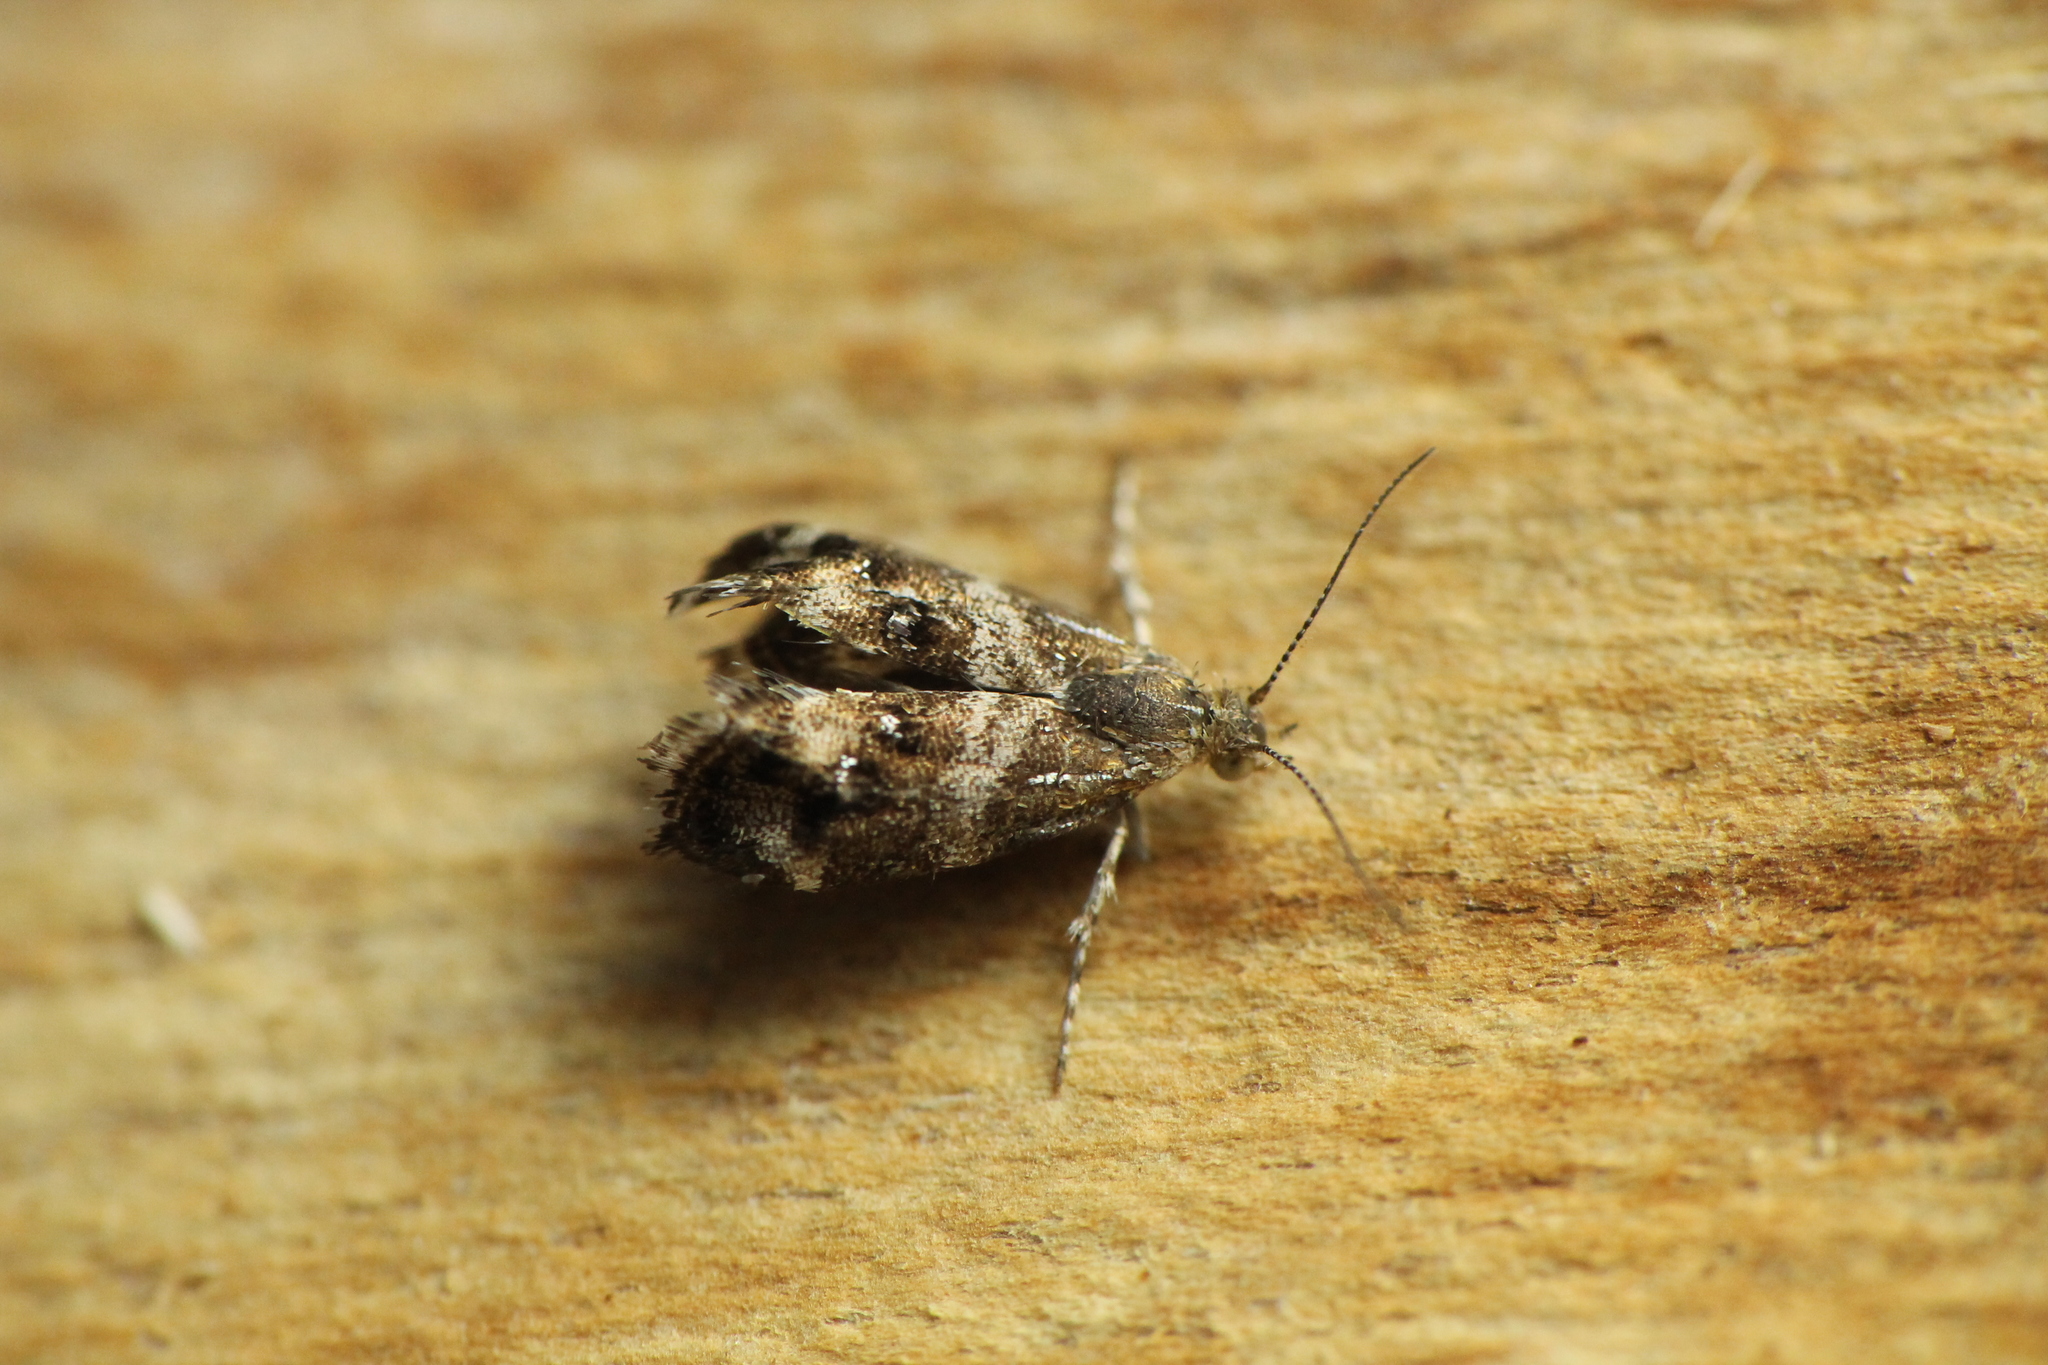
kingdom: Animalia
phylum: Arthropoda
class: Insecta
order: Lepidoptera
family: Choreutidae
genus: Tebenna
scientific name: Tebenna micalis
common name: Vagrant twitcher
